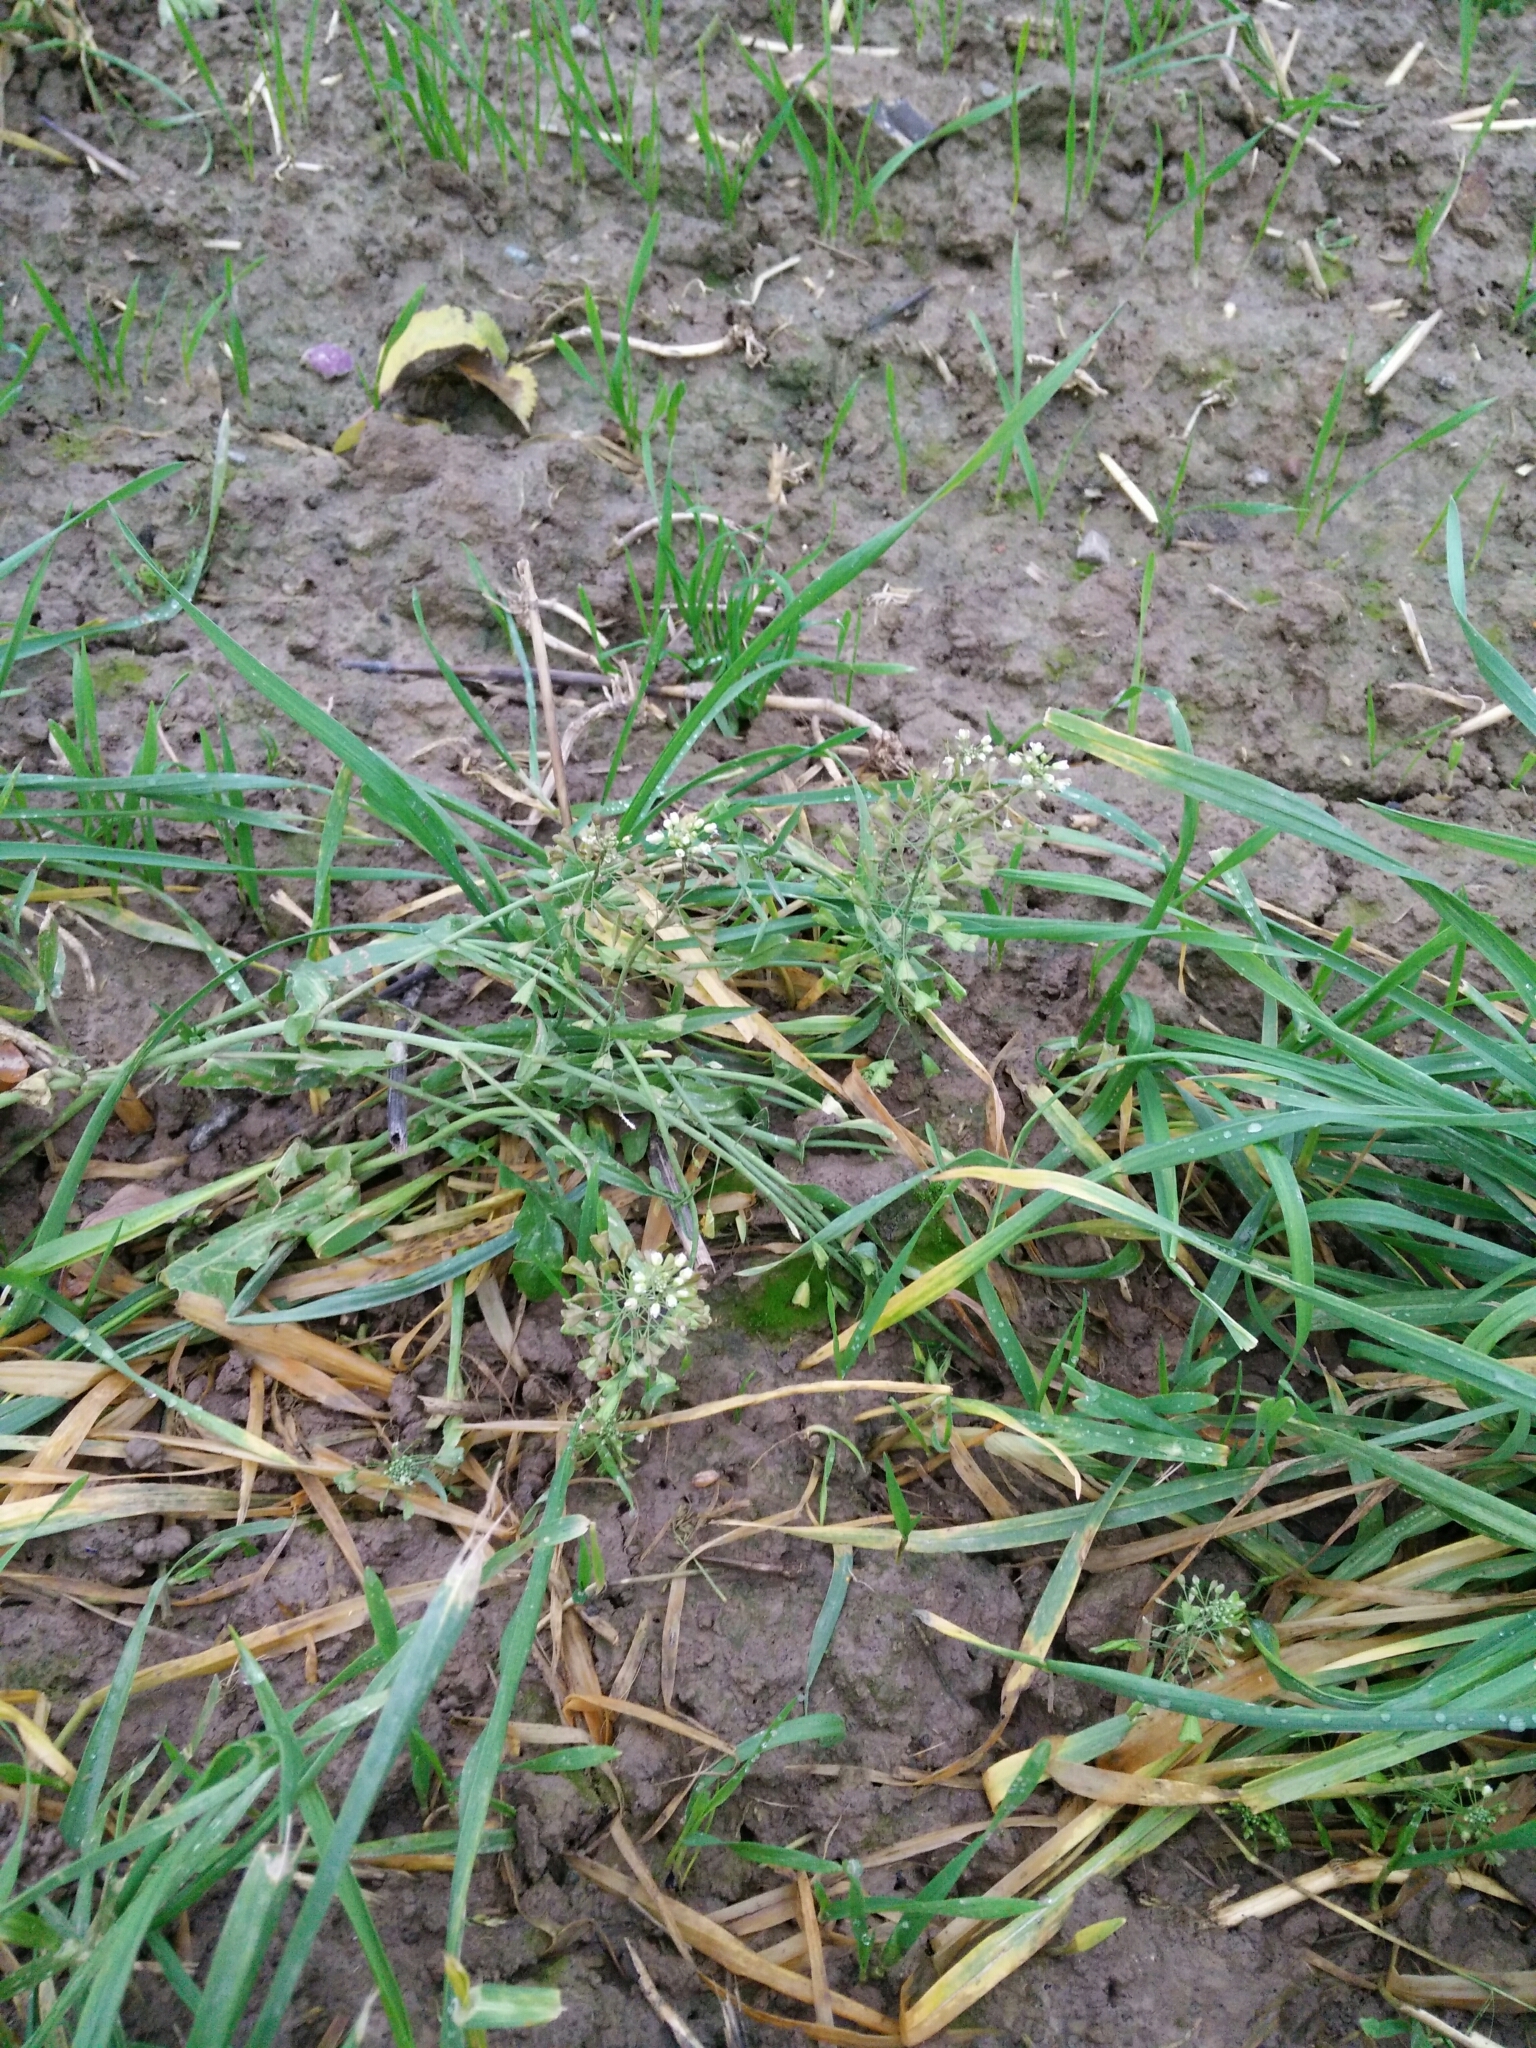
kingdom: Plantae
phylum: Tracheophyta
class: Magnoliopsida
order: Brassicales
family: Brassicaceae
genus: Capsella
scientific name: Capsella bursa-pastoris
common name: Shepherd's purse
